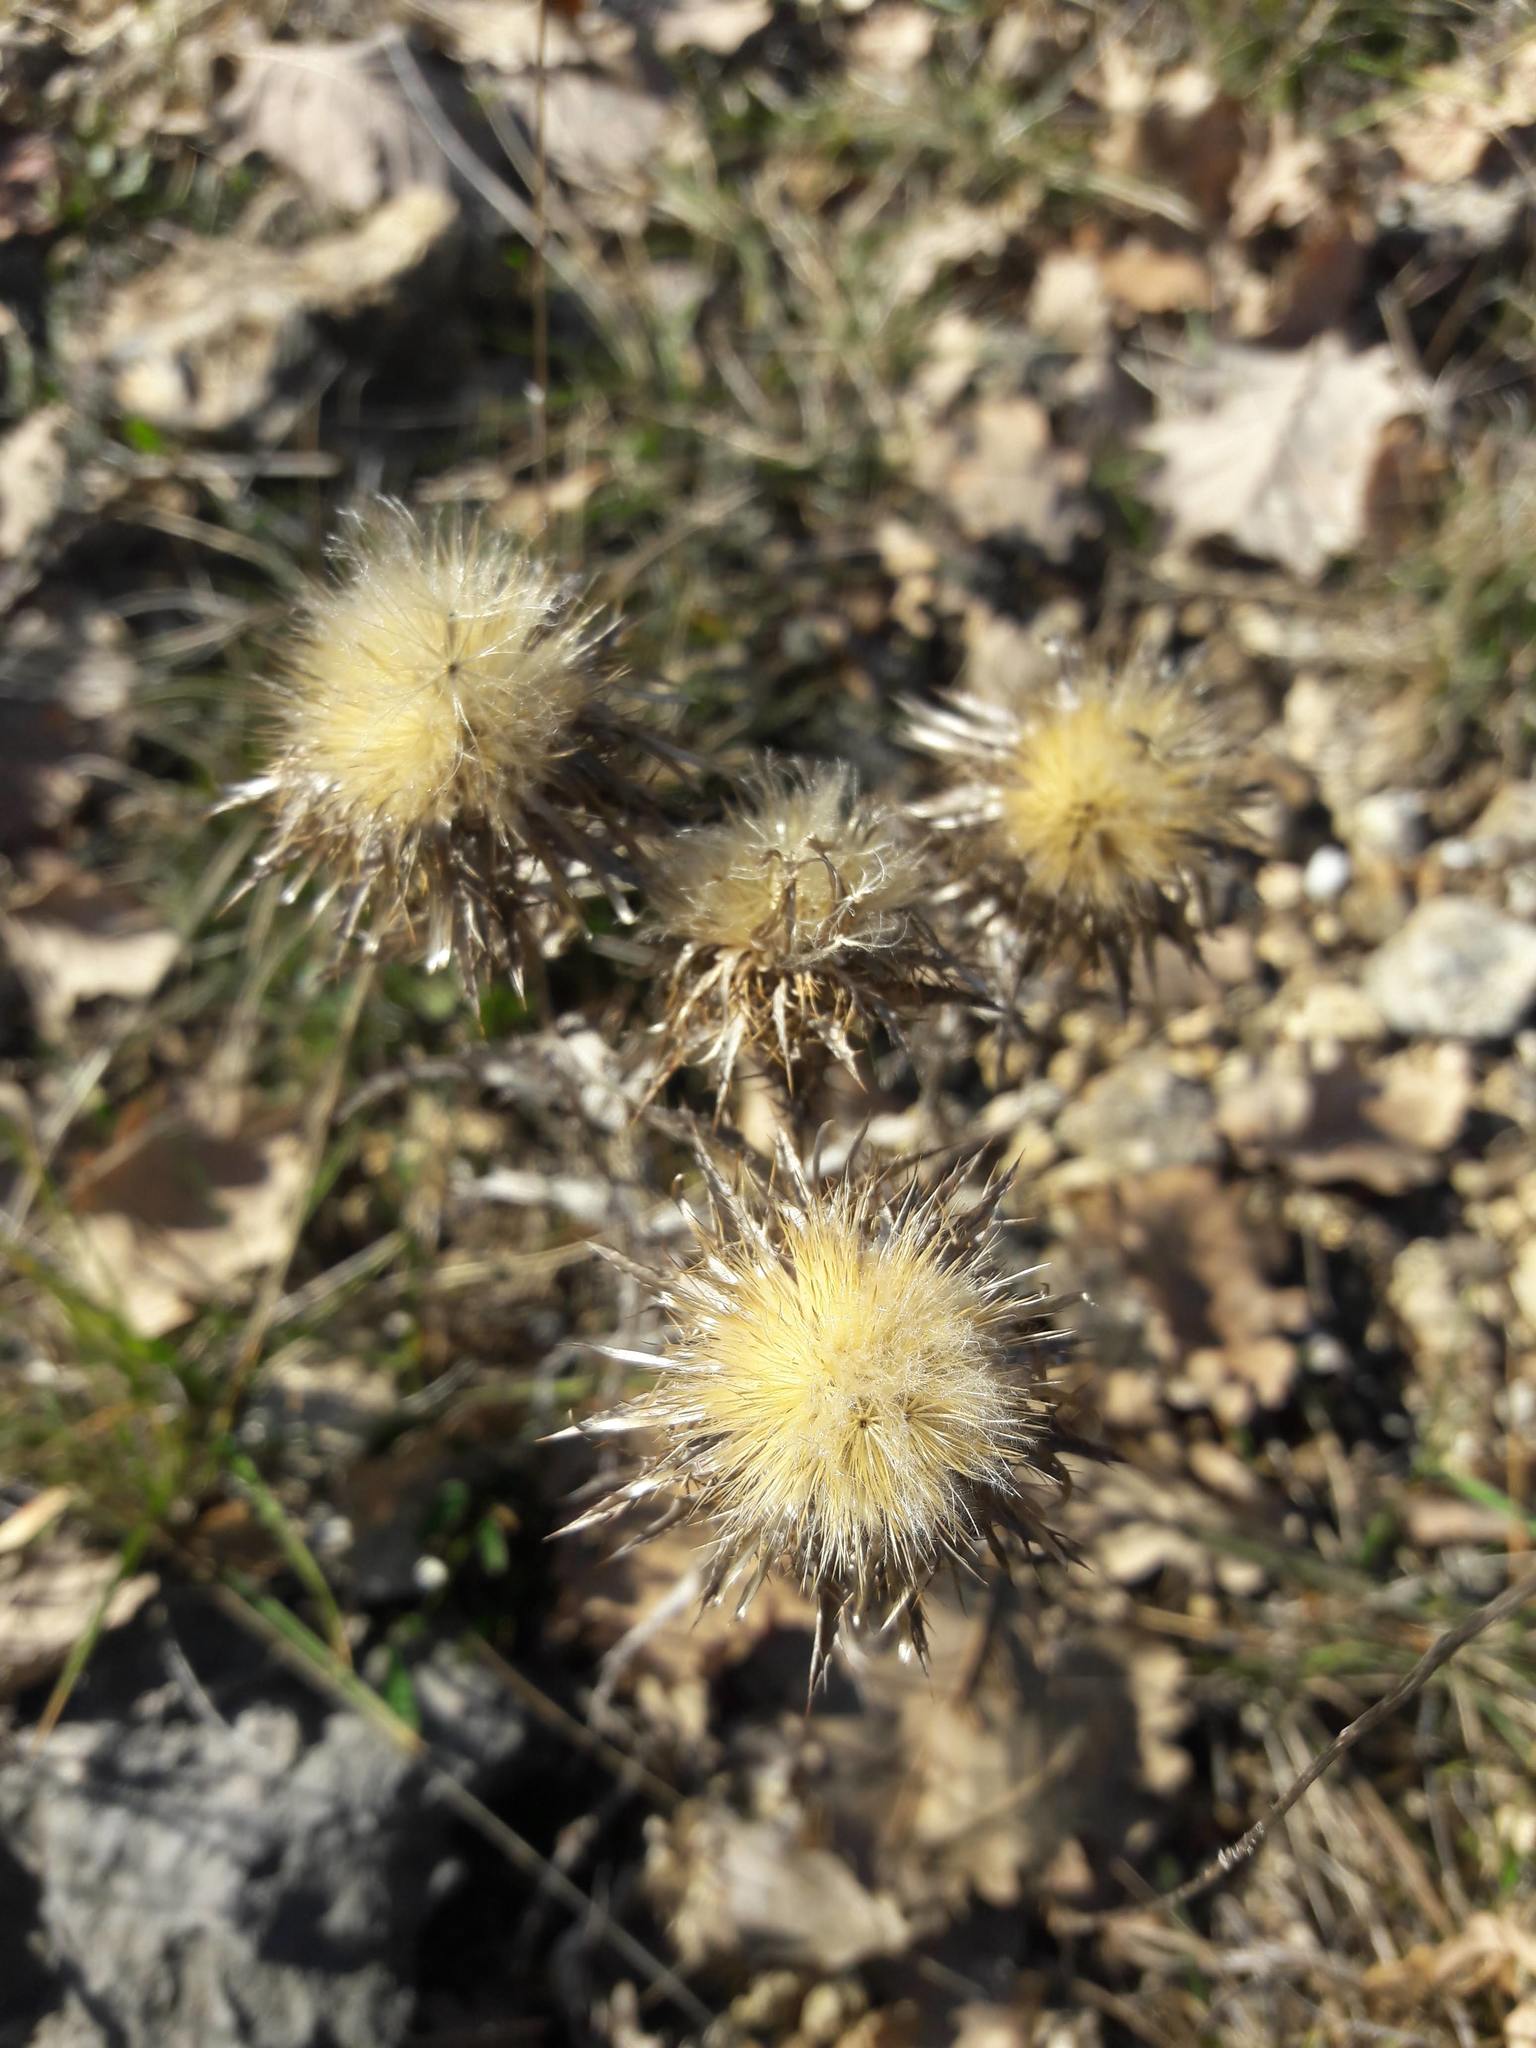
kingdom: Plantae
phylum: Tracheophyta
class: Magnoliopsida
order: Asterales
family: Asteraceae
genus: Carlina
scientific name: Carlina vulgaris
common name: Carline thistle
